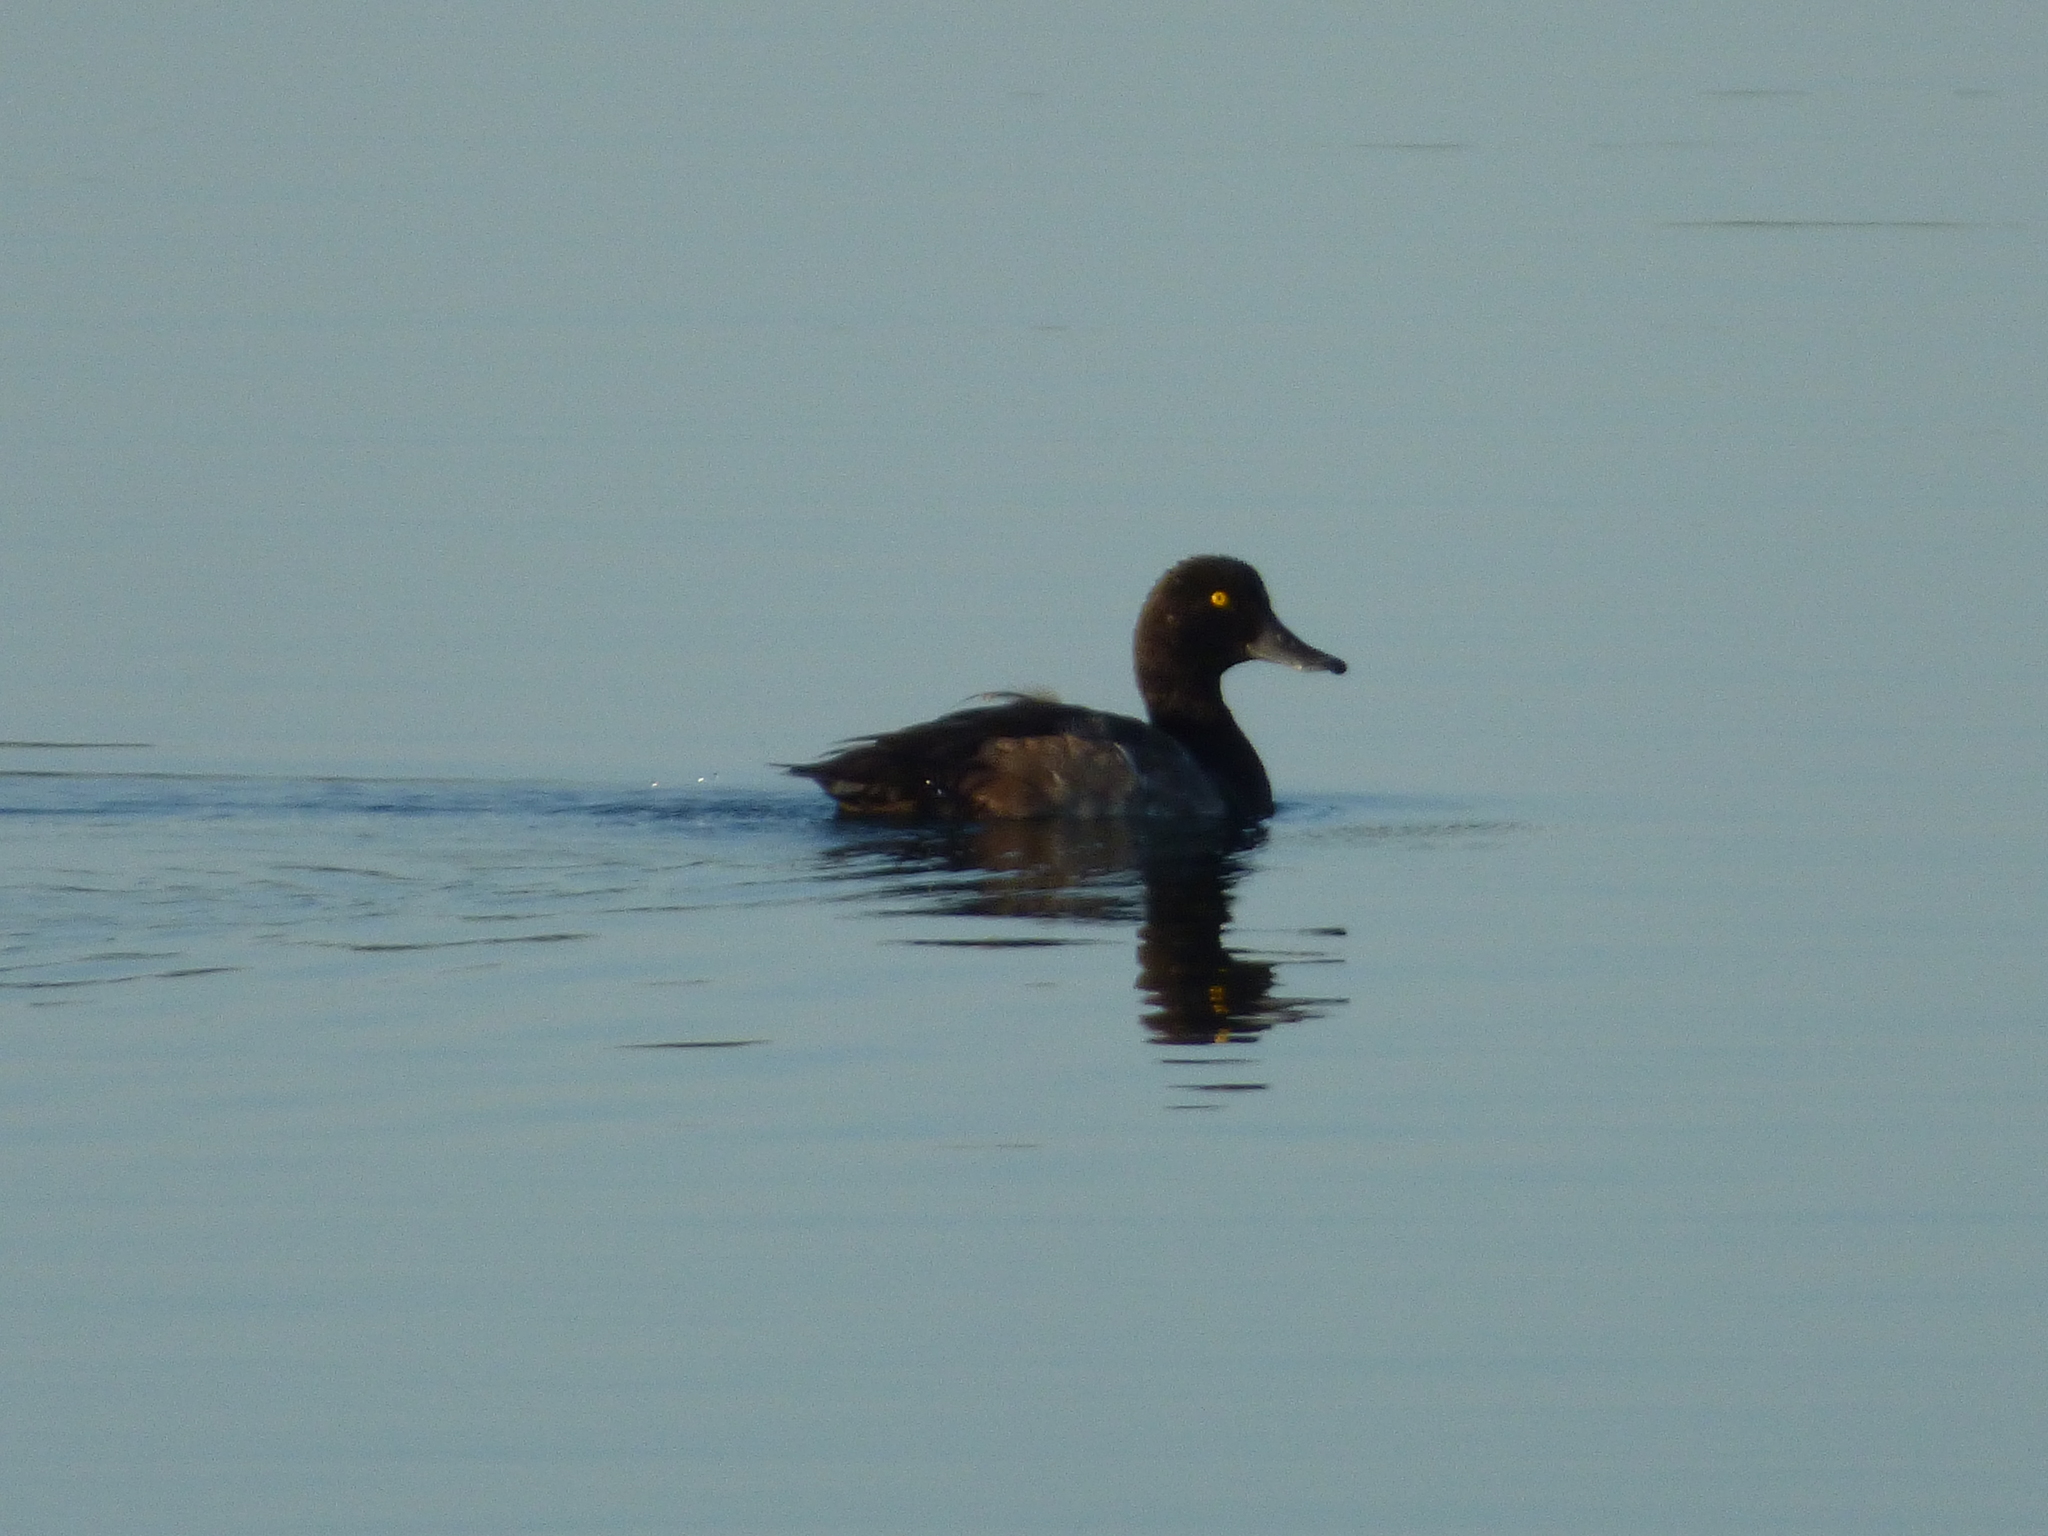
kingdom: Animalia
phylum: Chordata
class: Aves
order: Anseriformes
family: Anatidae
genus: Aythya
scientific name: Aythya marila
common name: Greater scaup
